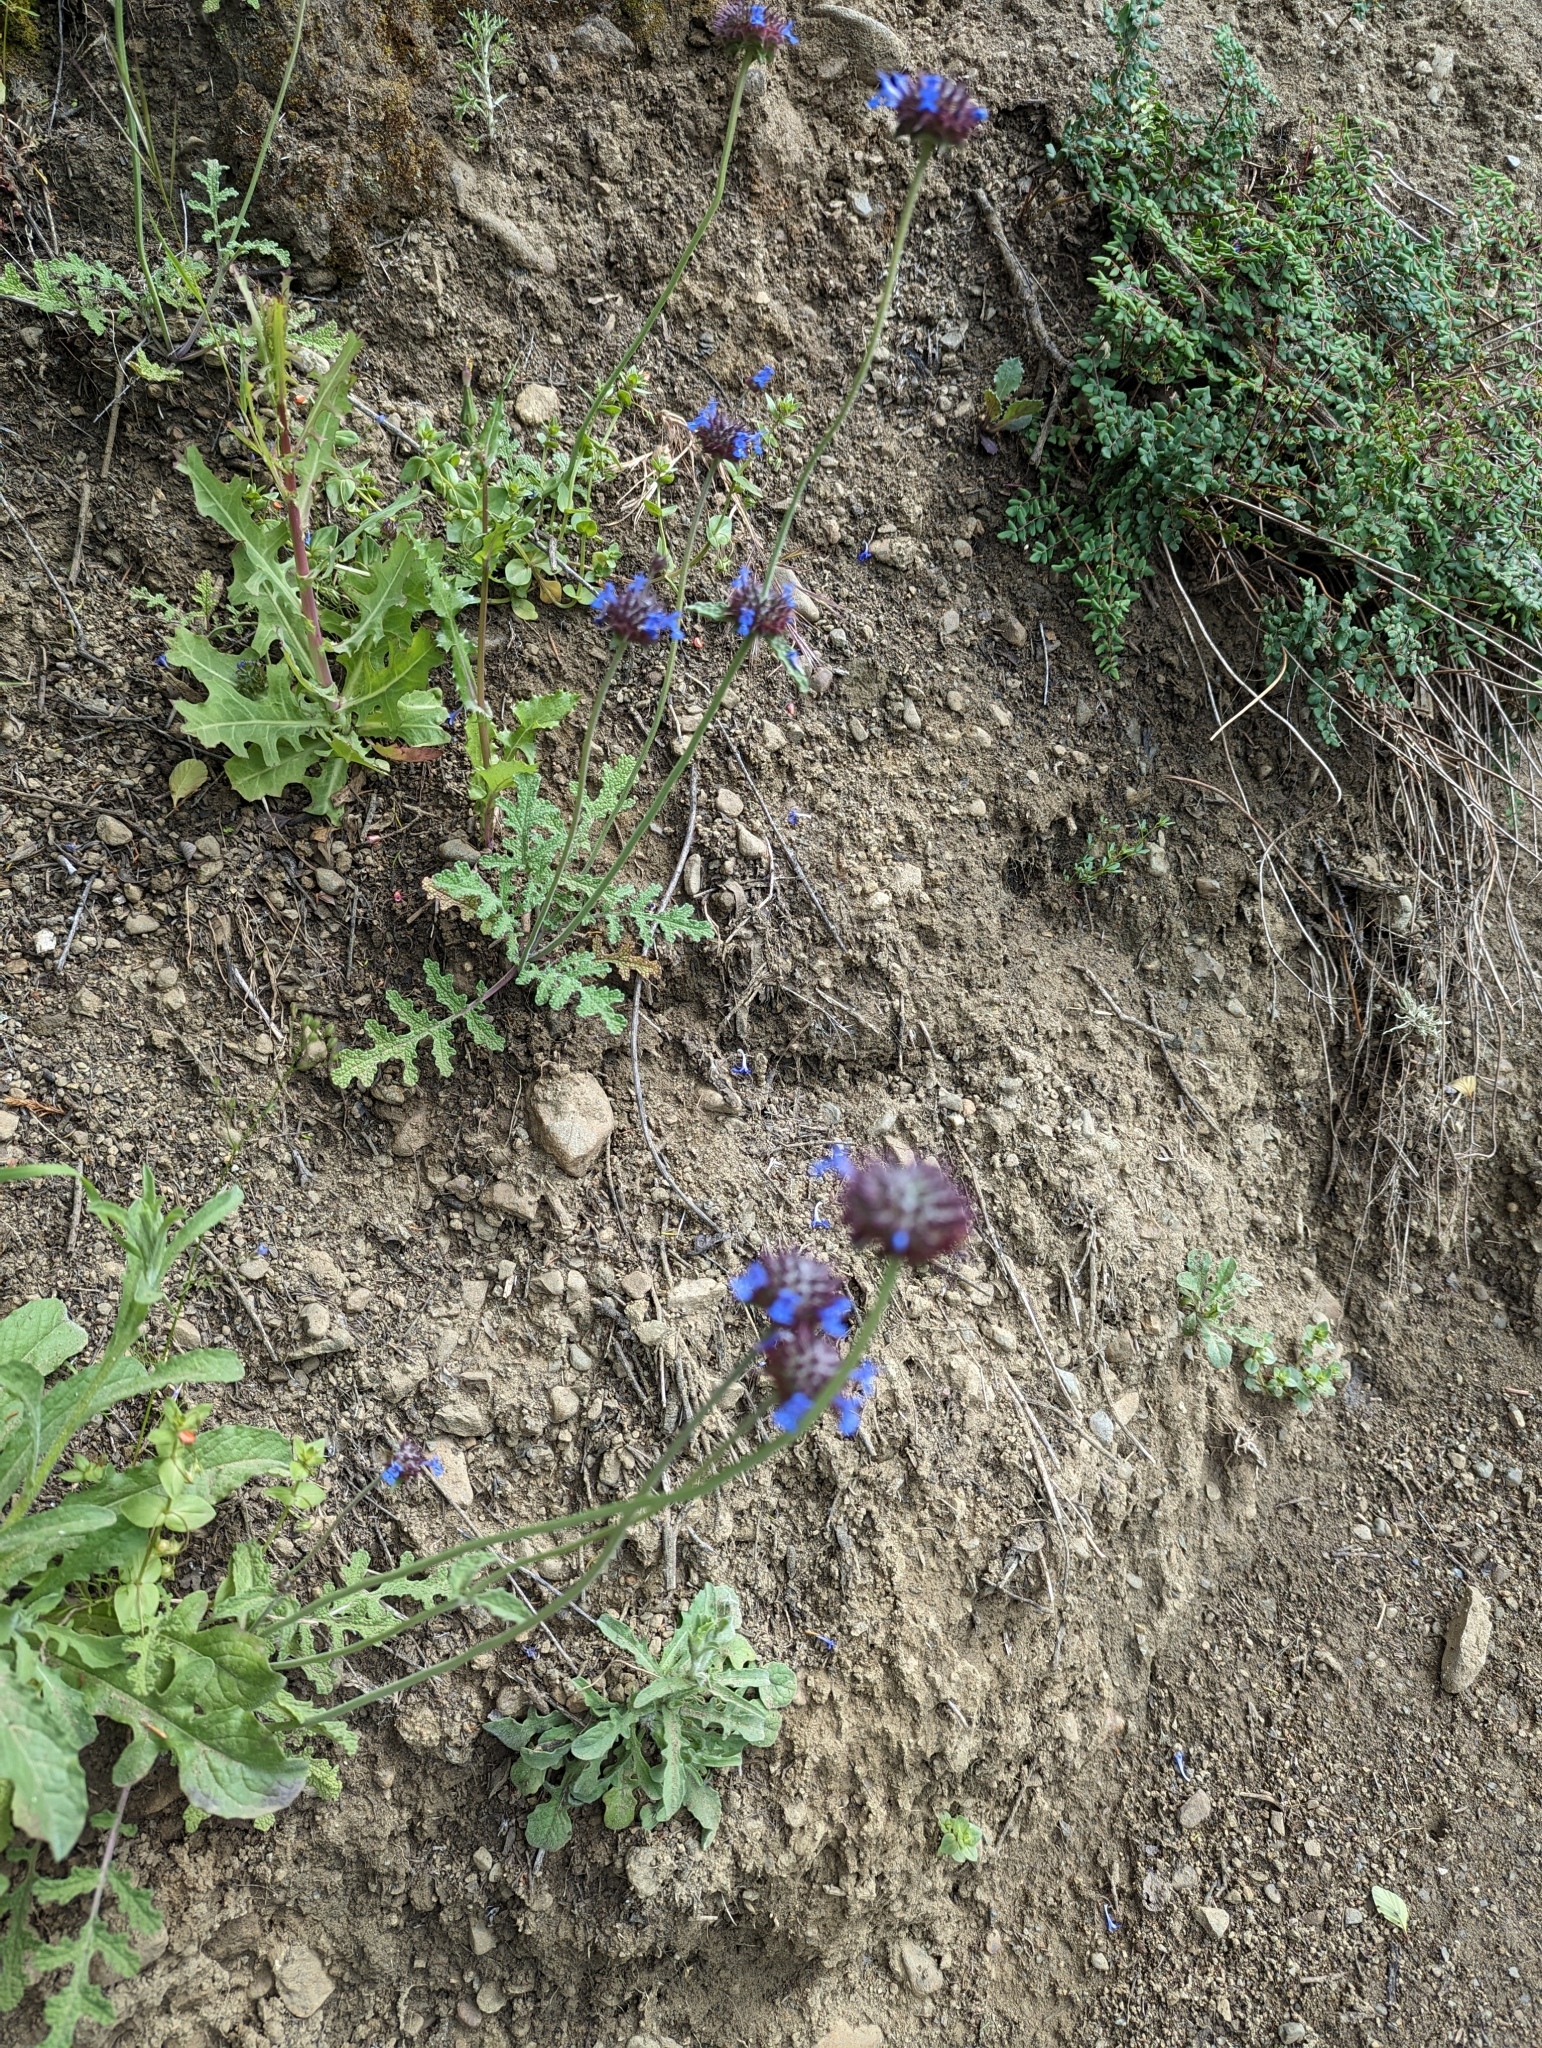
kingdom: Plantae
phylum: Tracheophyta
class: Magnoliopsida
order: Lamiales
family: Lamiaceae
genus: Salvia
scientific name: Salvia columbariae
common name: Chia
